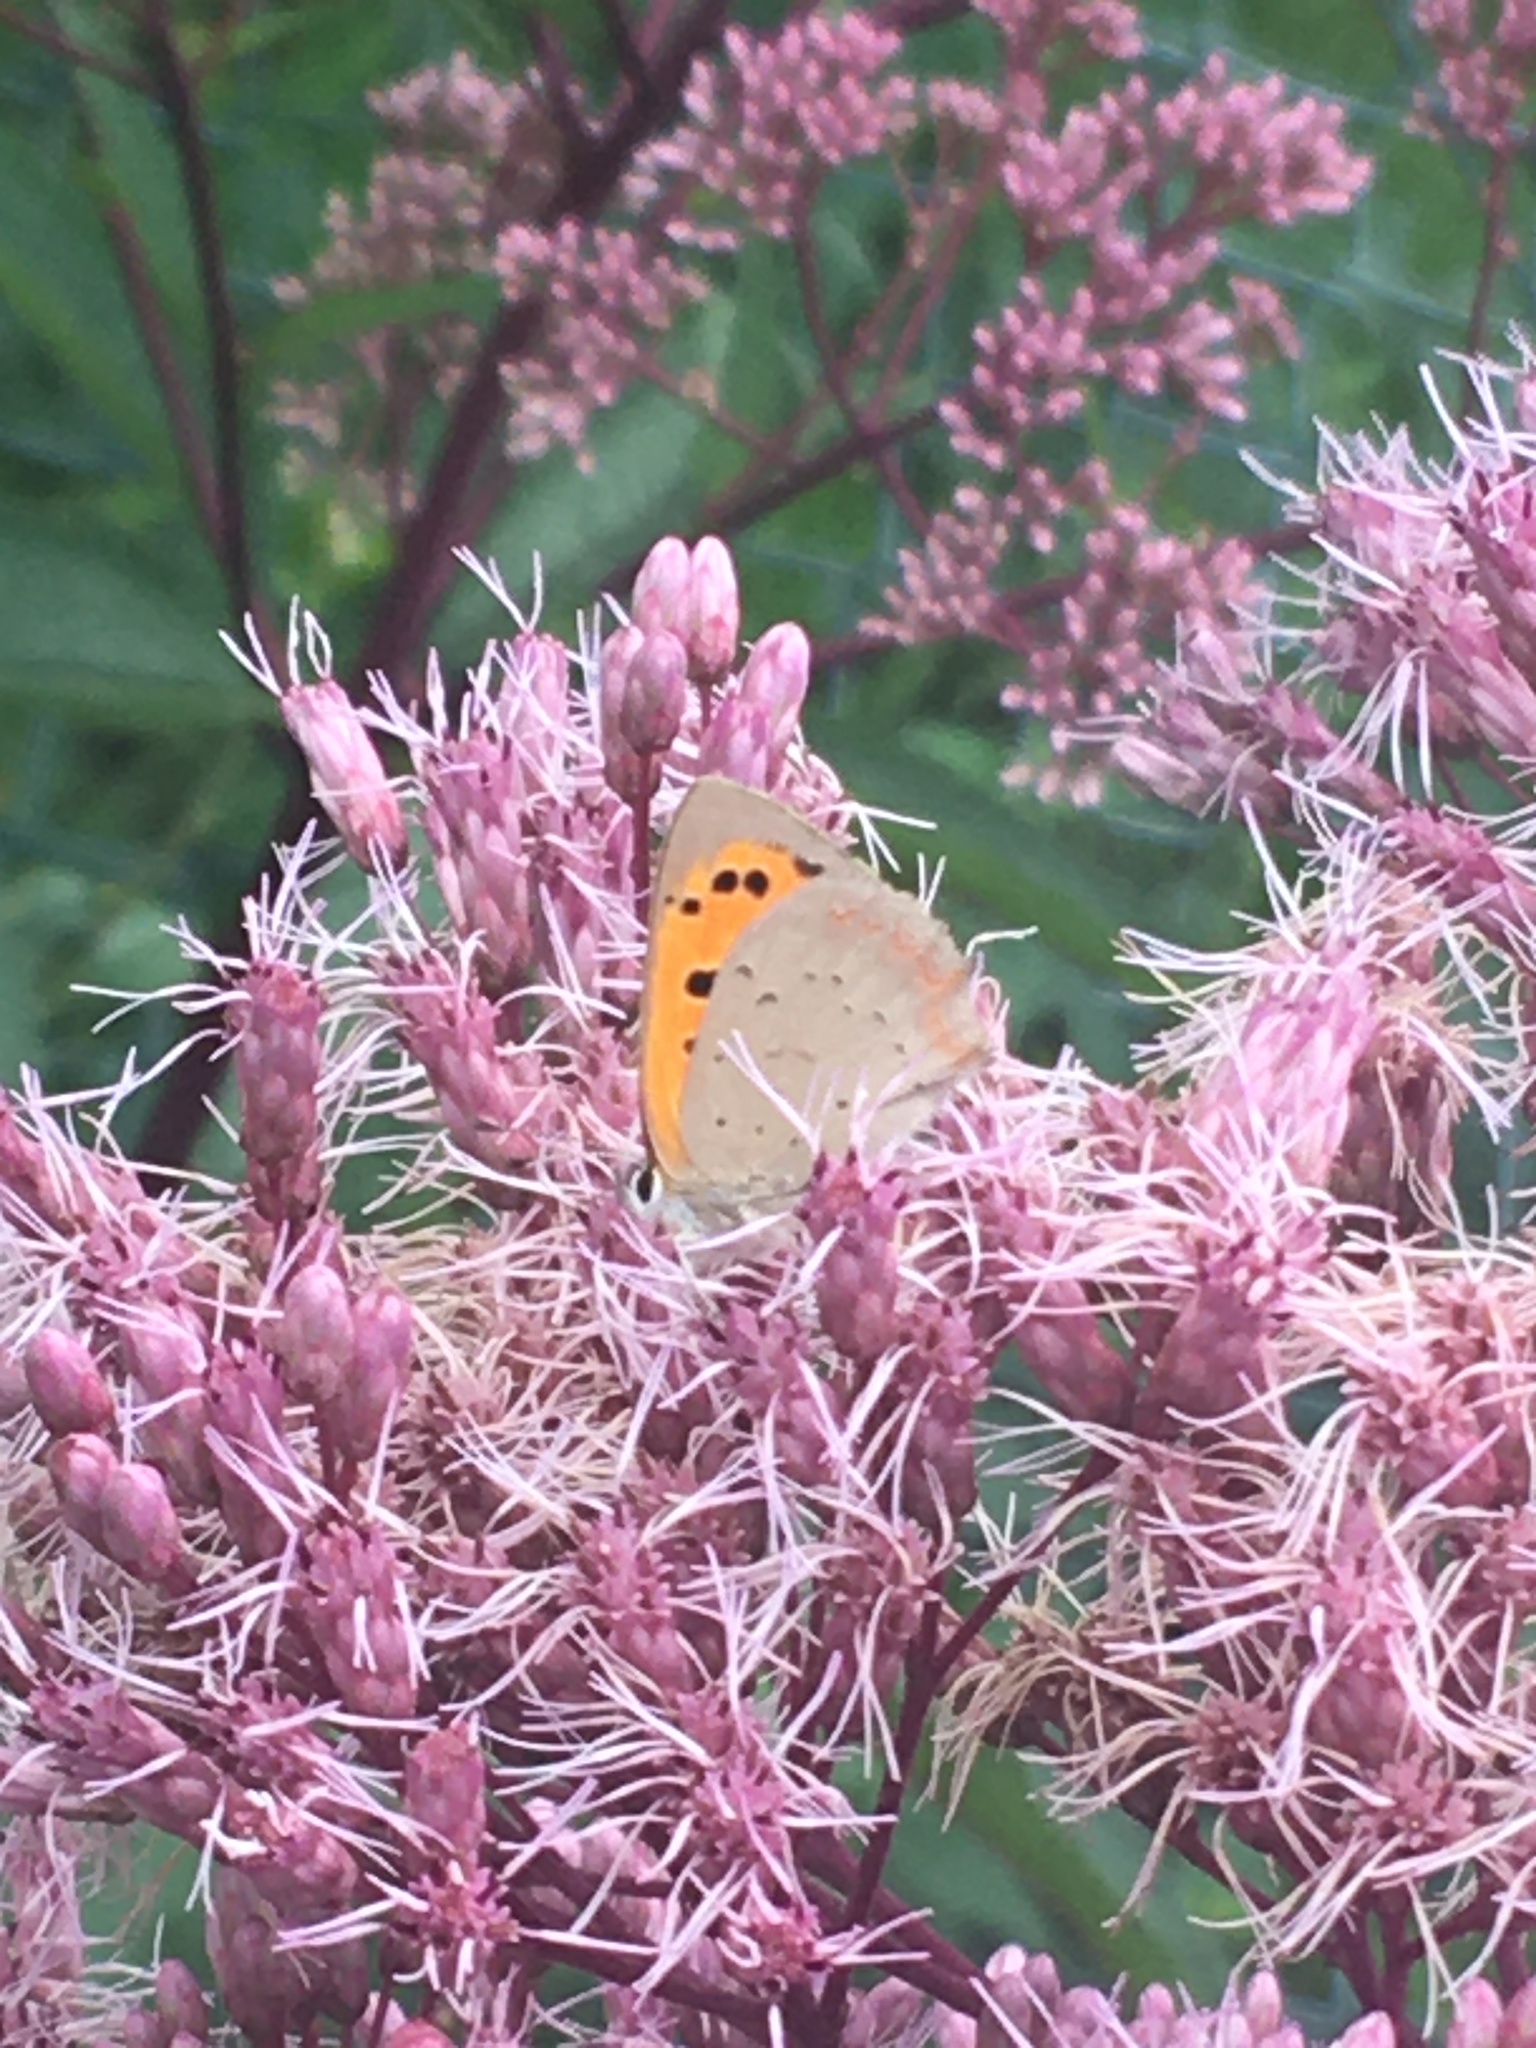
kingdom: Animalia
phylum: Arthropoda
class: Insecta
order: Lepidoptera
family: Lycaenidae
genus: Lycaena
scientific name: Lycaena phlaeas
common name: Small copper
